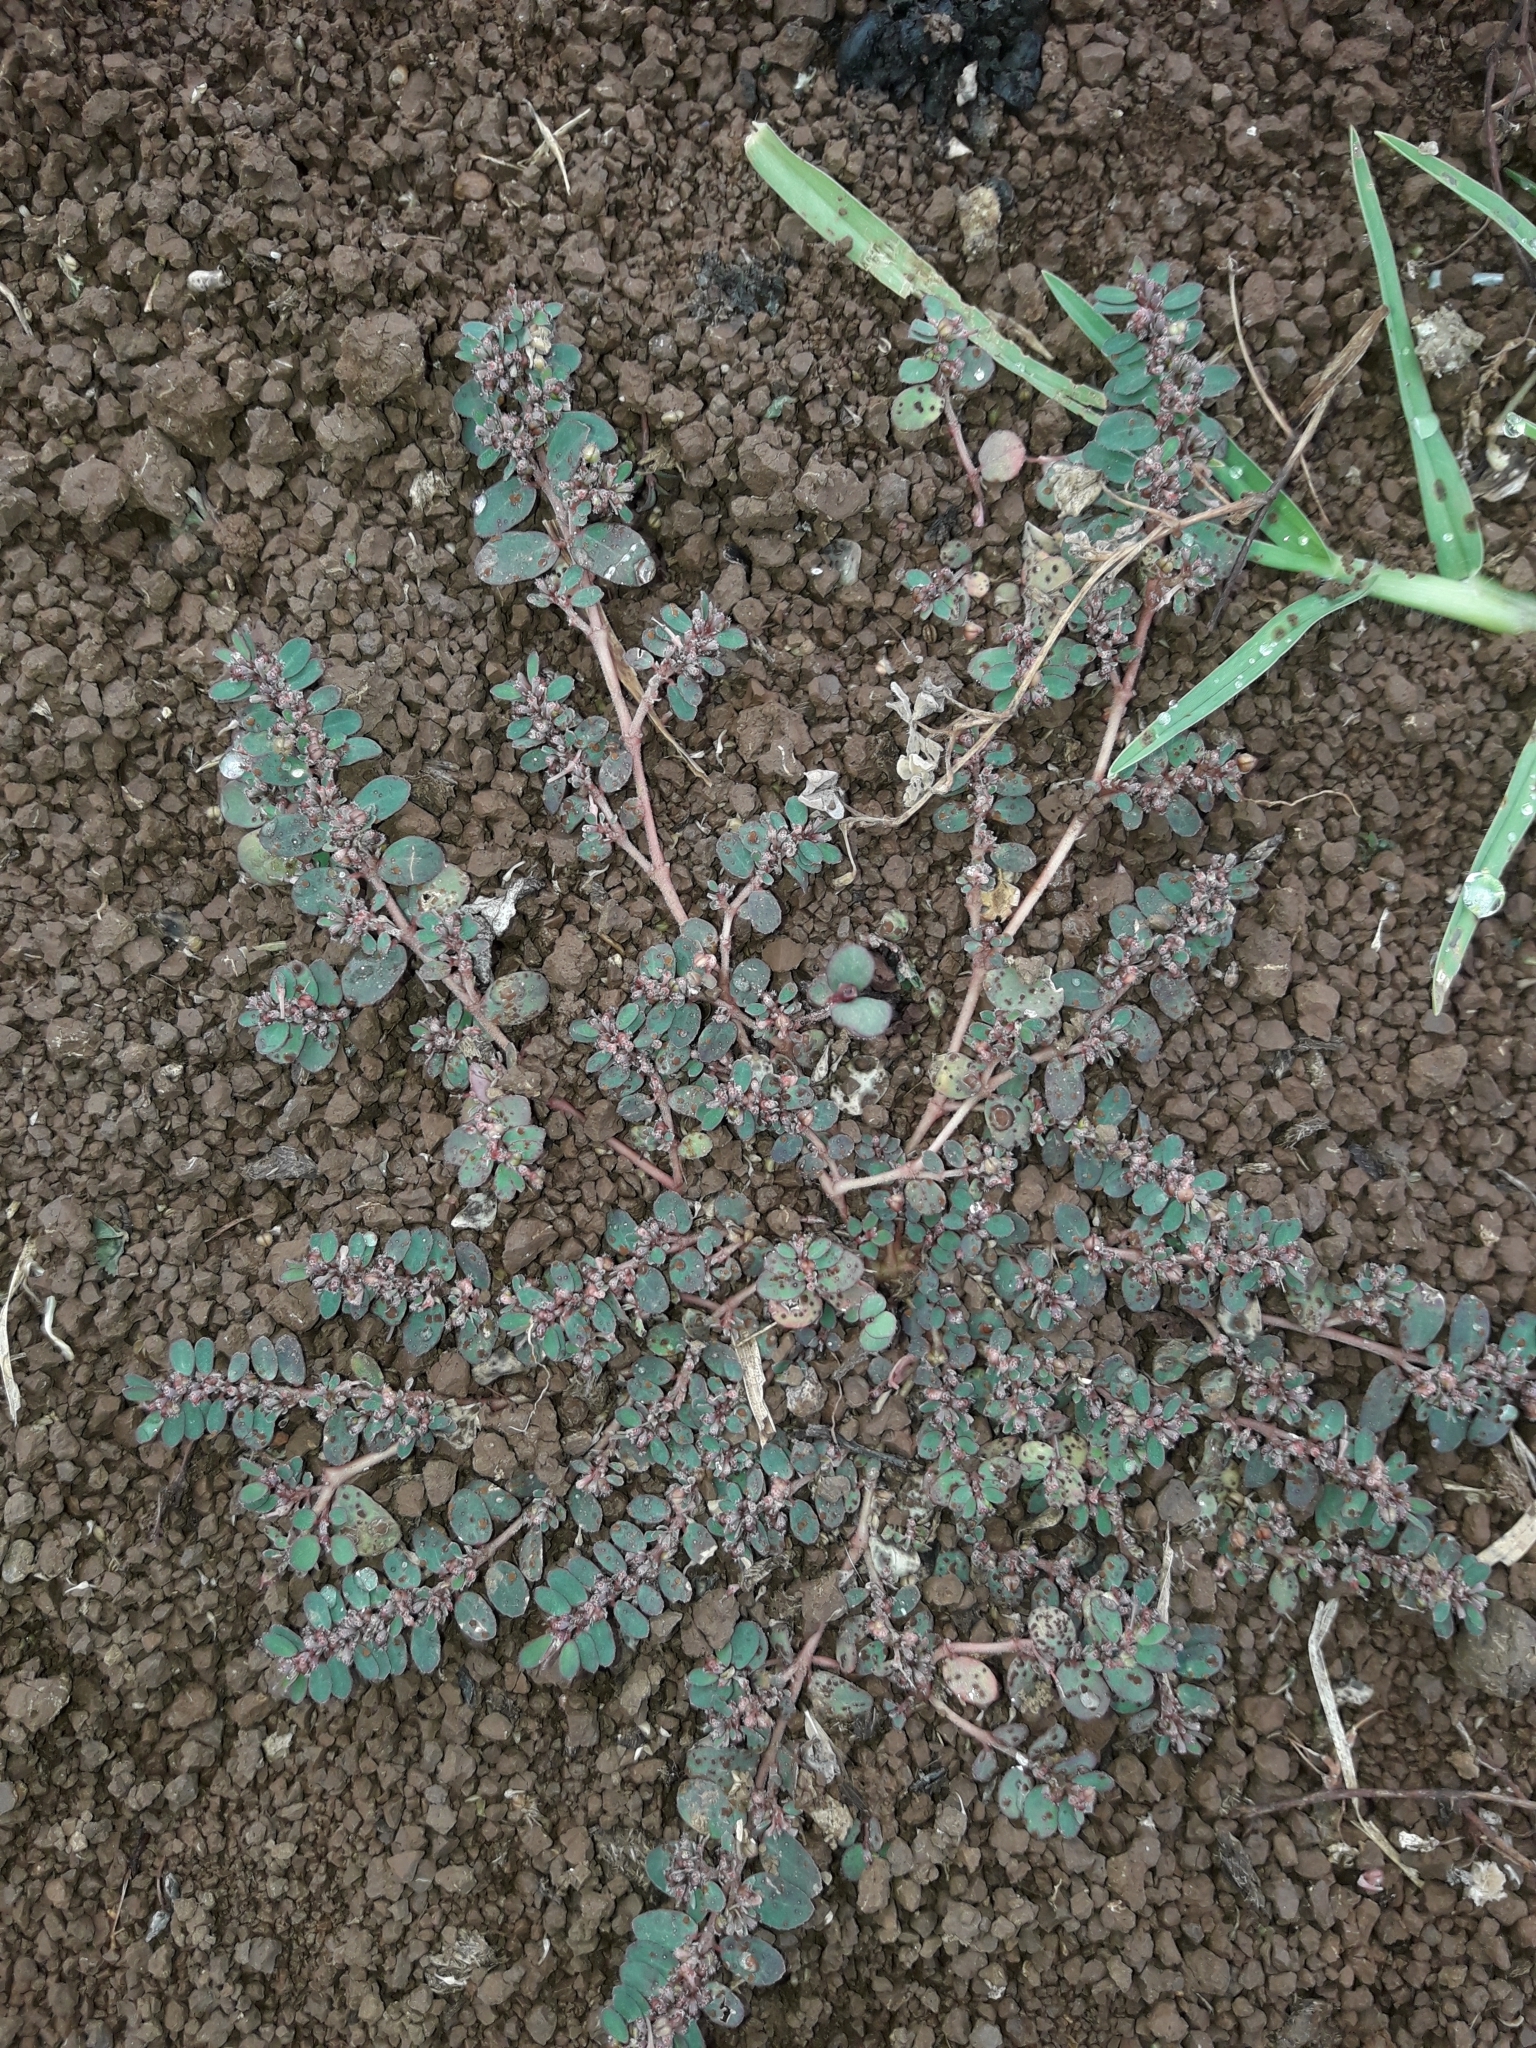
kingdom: Plantae
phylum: Tracheophyta
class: Magnoliopsida
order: Malpighiales
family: Euphorbiaceae
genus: Euphorbia
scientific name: Euphorbia prostrata
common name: Prostrate sandmat
